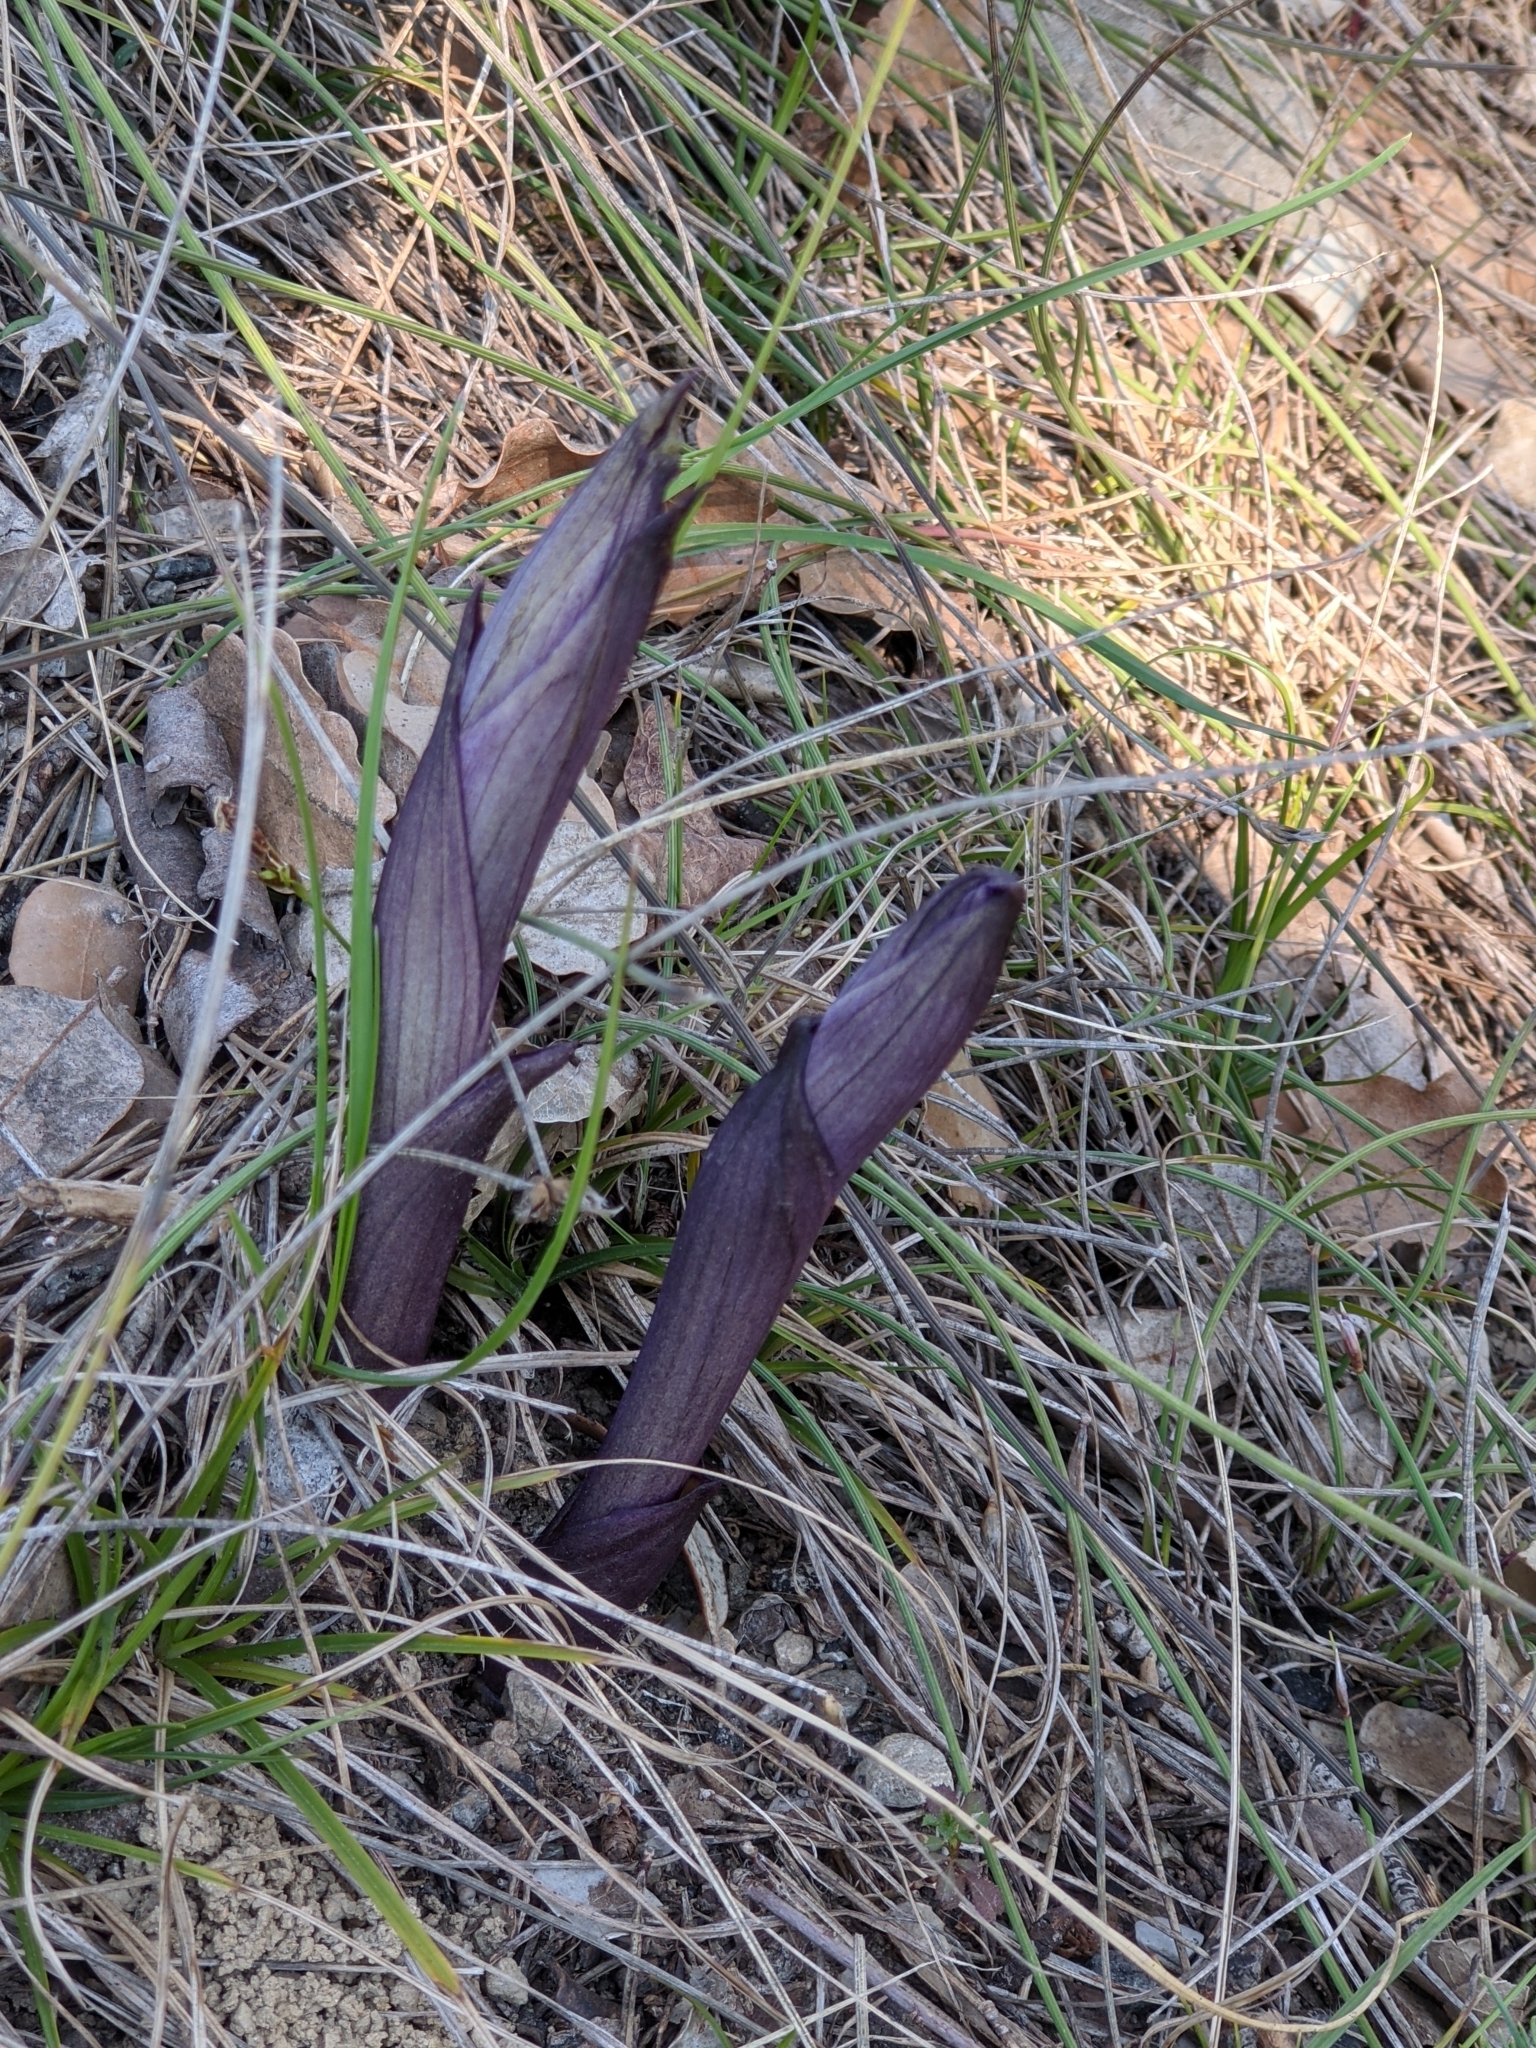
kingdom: Plantae
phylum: Tracheophyta
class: Liliopsida
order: Asparagales
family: Orchidaceae
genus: Limodorum
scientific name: Limodorum abortivum
